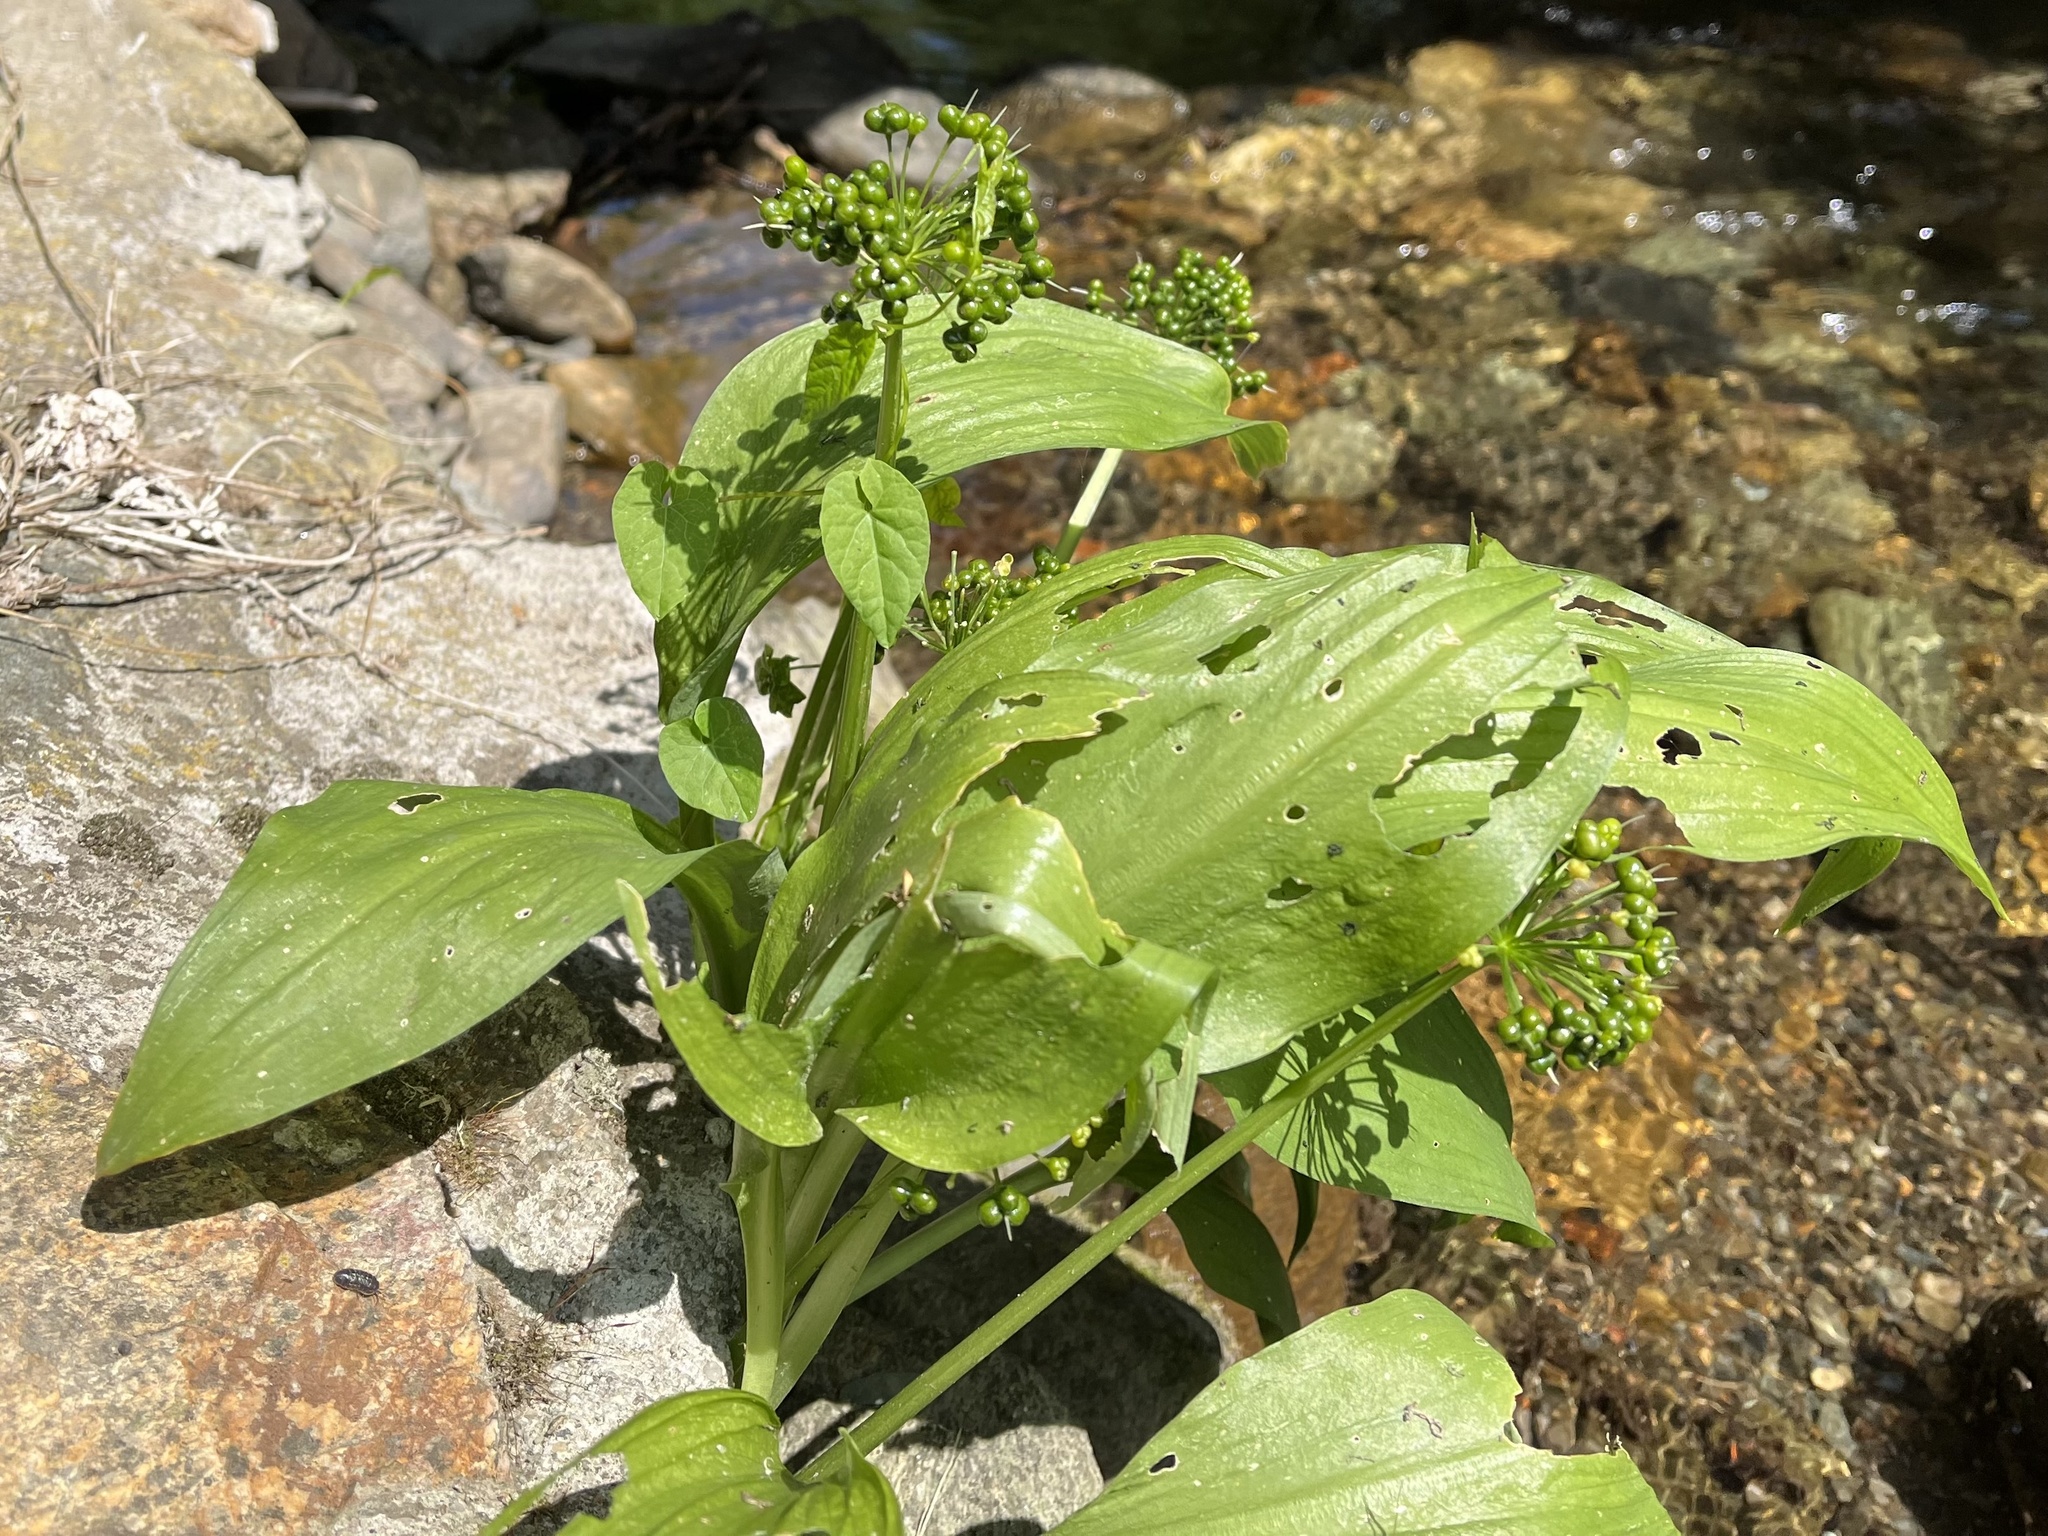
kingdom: Plantae
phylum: Tracheophyta
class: Liliopsida
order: Asparagales
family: Amaryllidaceae
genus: Allium
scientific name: Allium ursinum
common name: Ramsons
